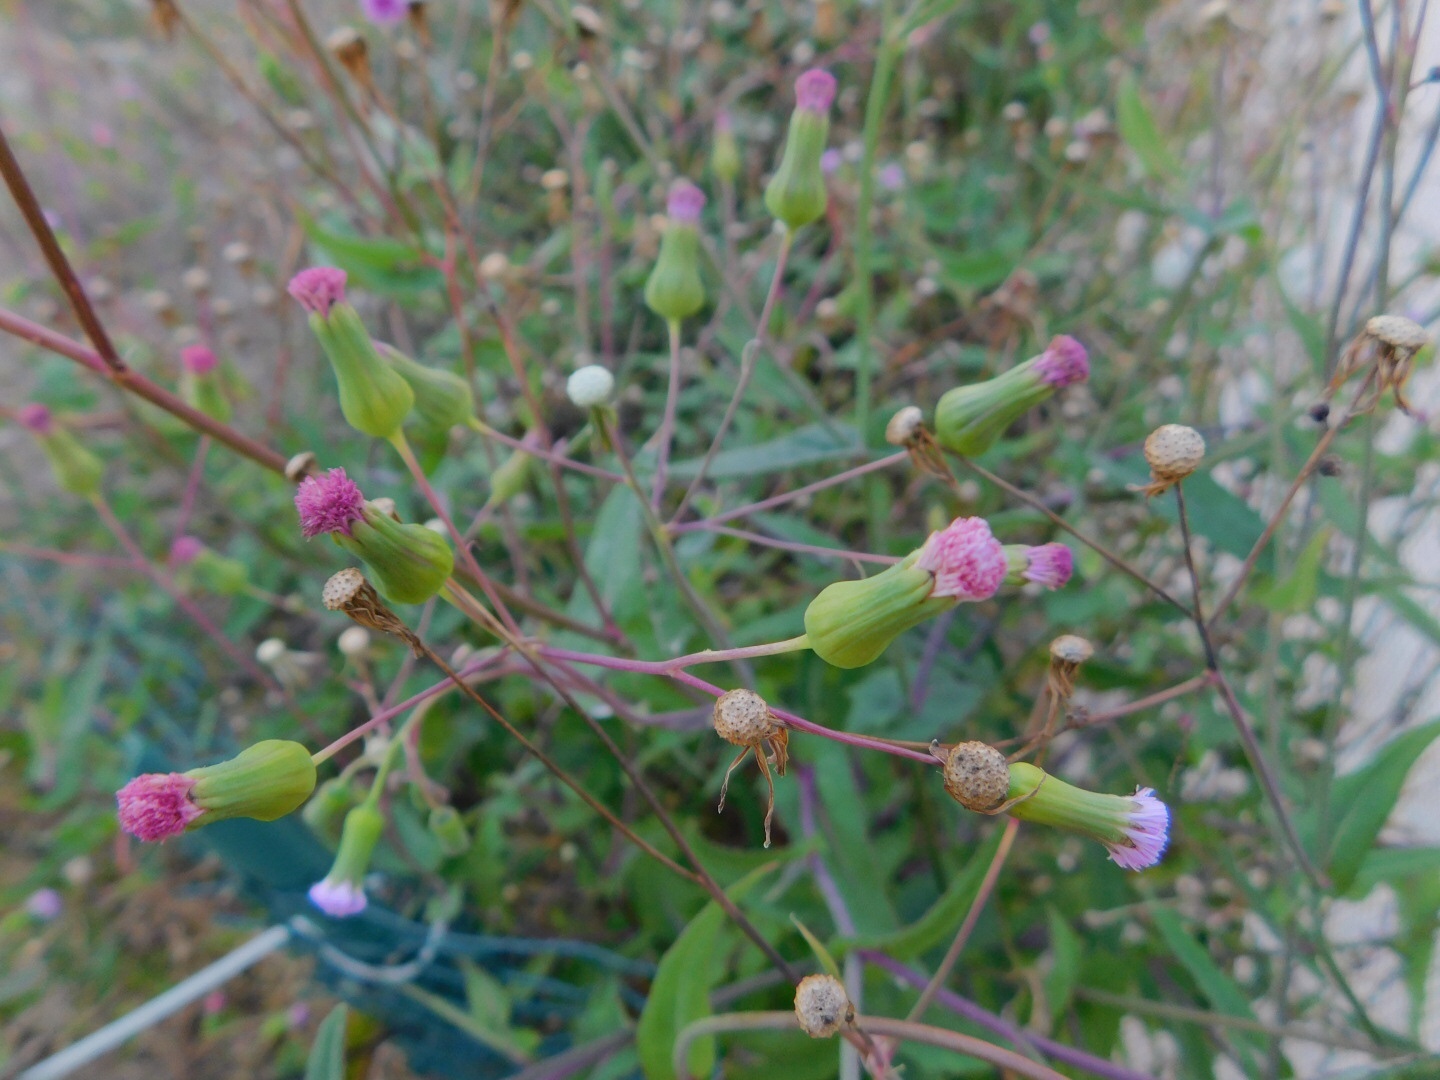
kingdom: Plantae
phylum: Tracheophyta
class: Magnoliopsida
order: Asterales
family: Asteraceae
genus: Emilia
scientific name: Emilia sonchifolia
